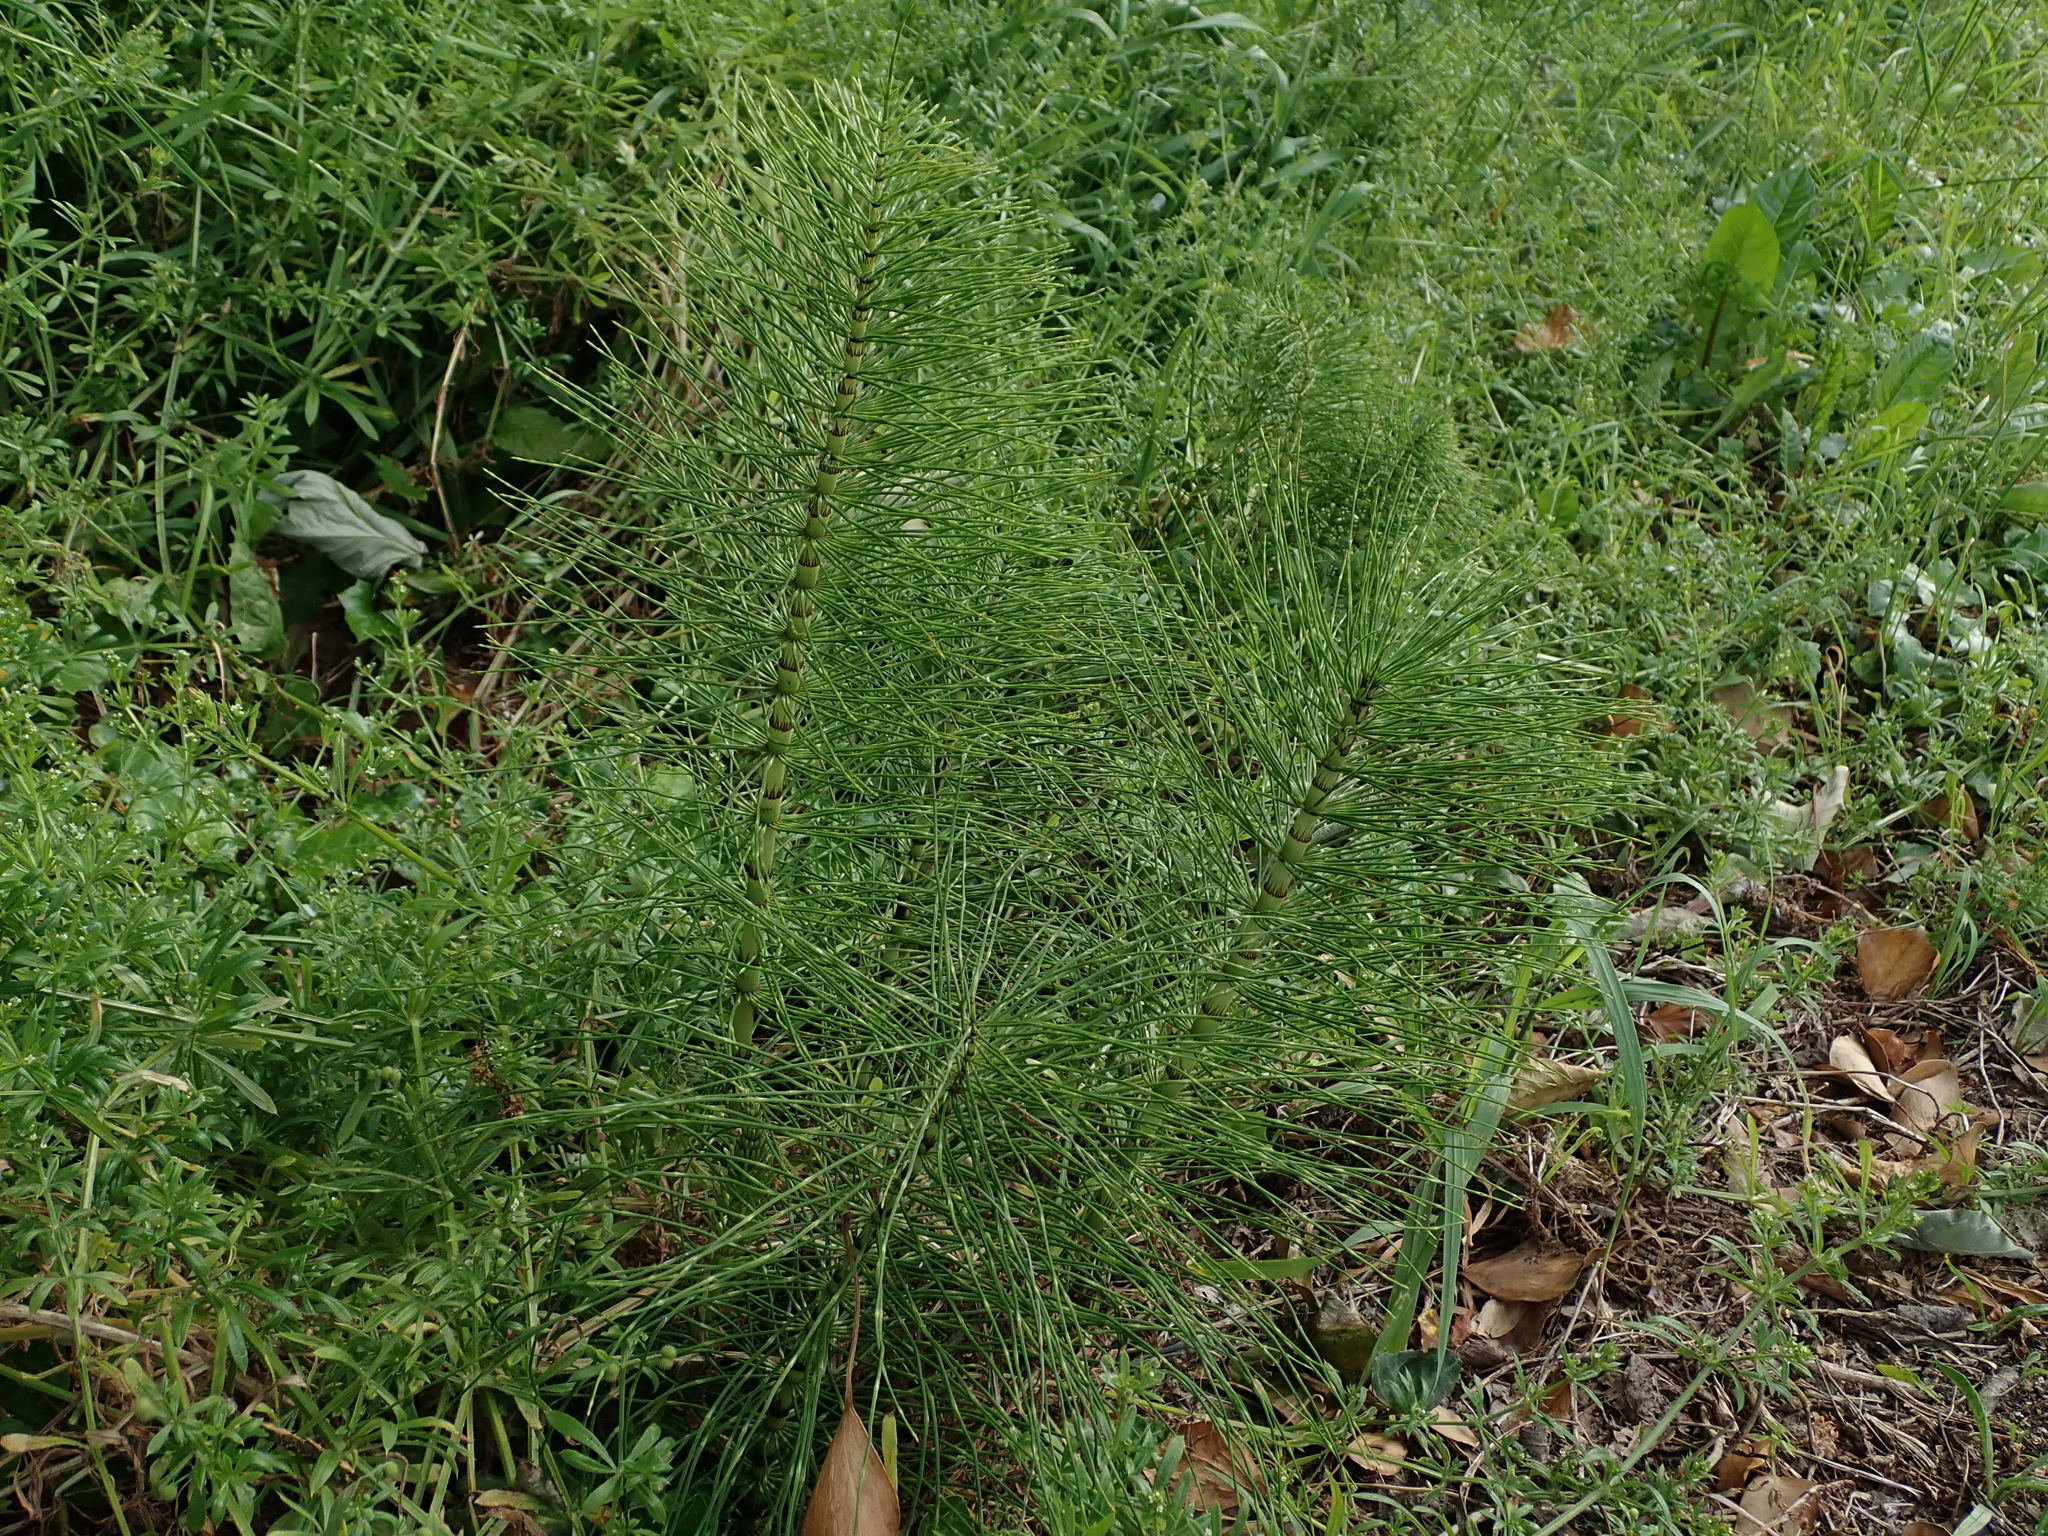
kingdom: Plantae
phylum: Tracheophyta
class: Polypodiopsida
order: Equisetales
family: Equisetaceae
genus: Equisetum
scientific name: Equisetum telmateia
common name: Great horsetail
